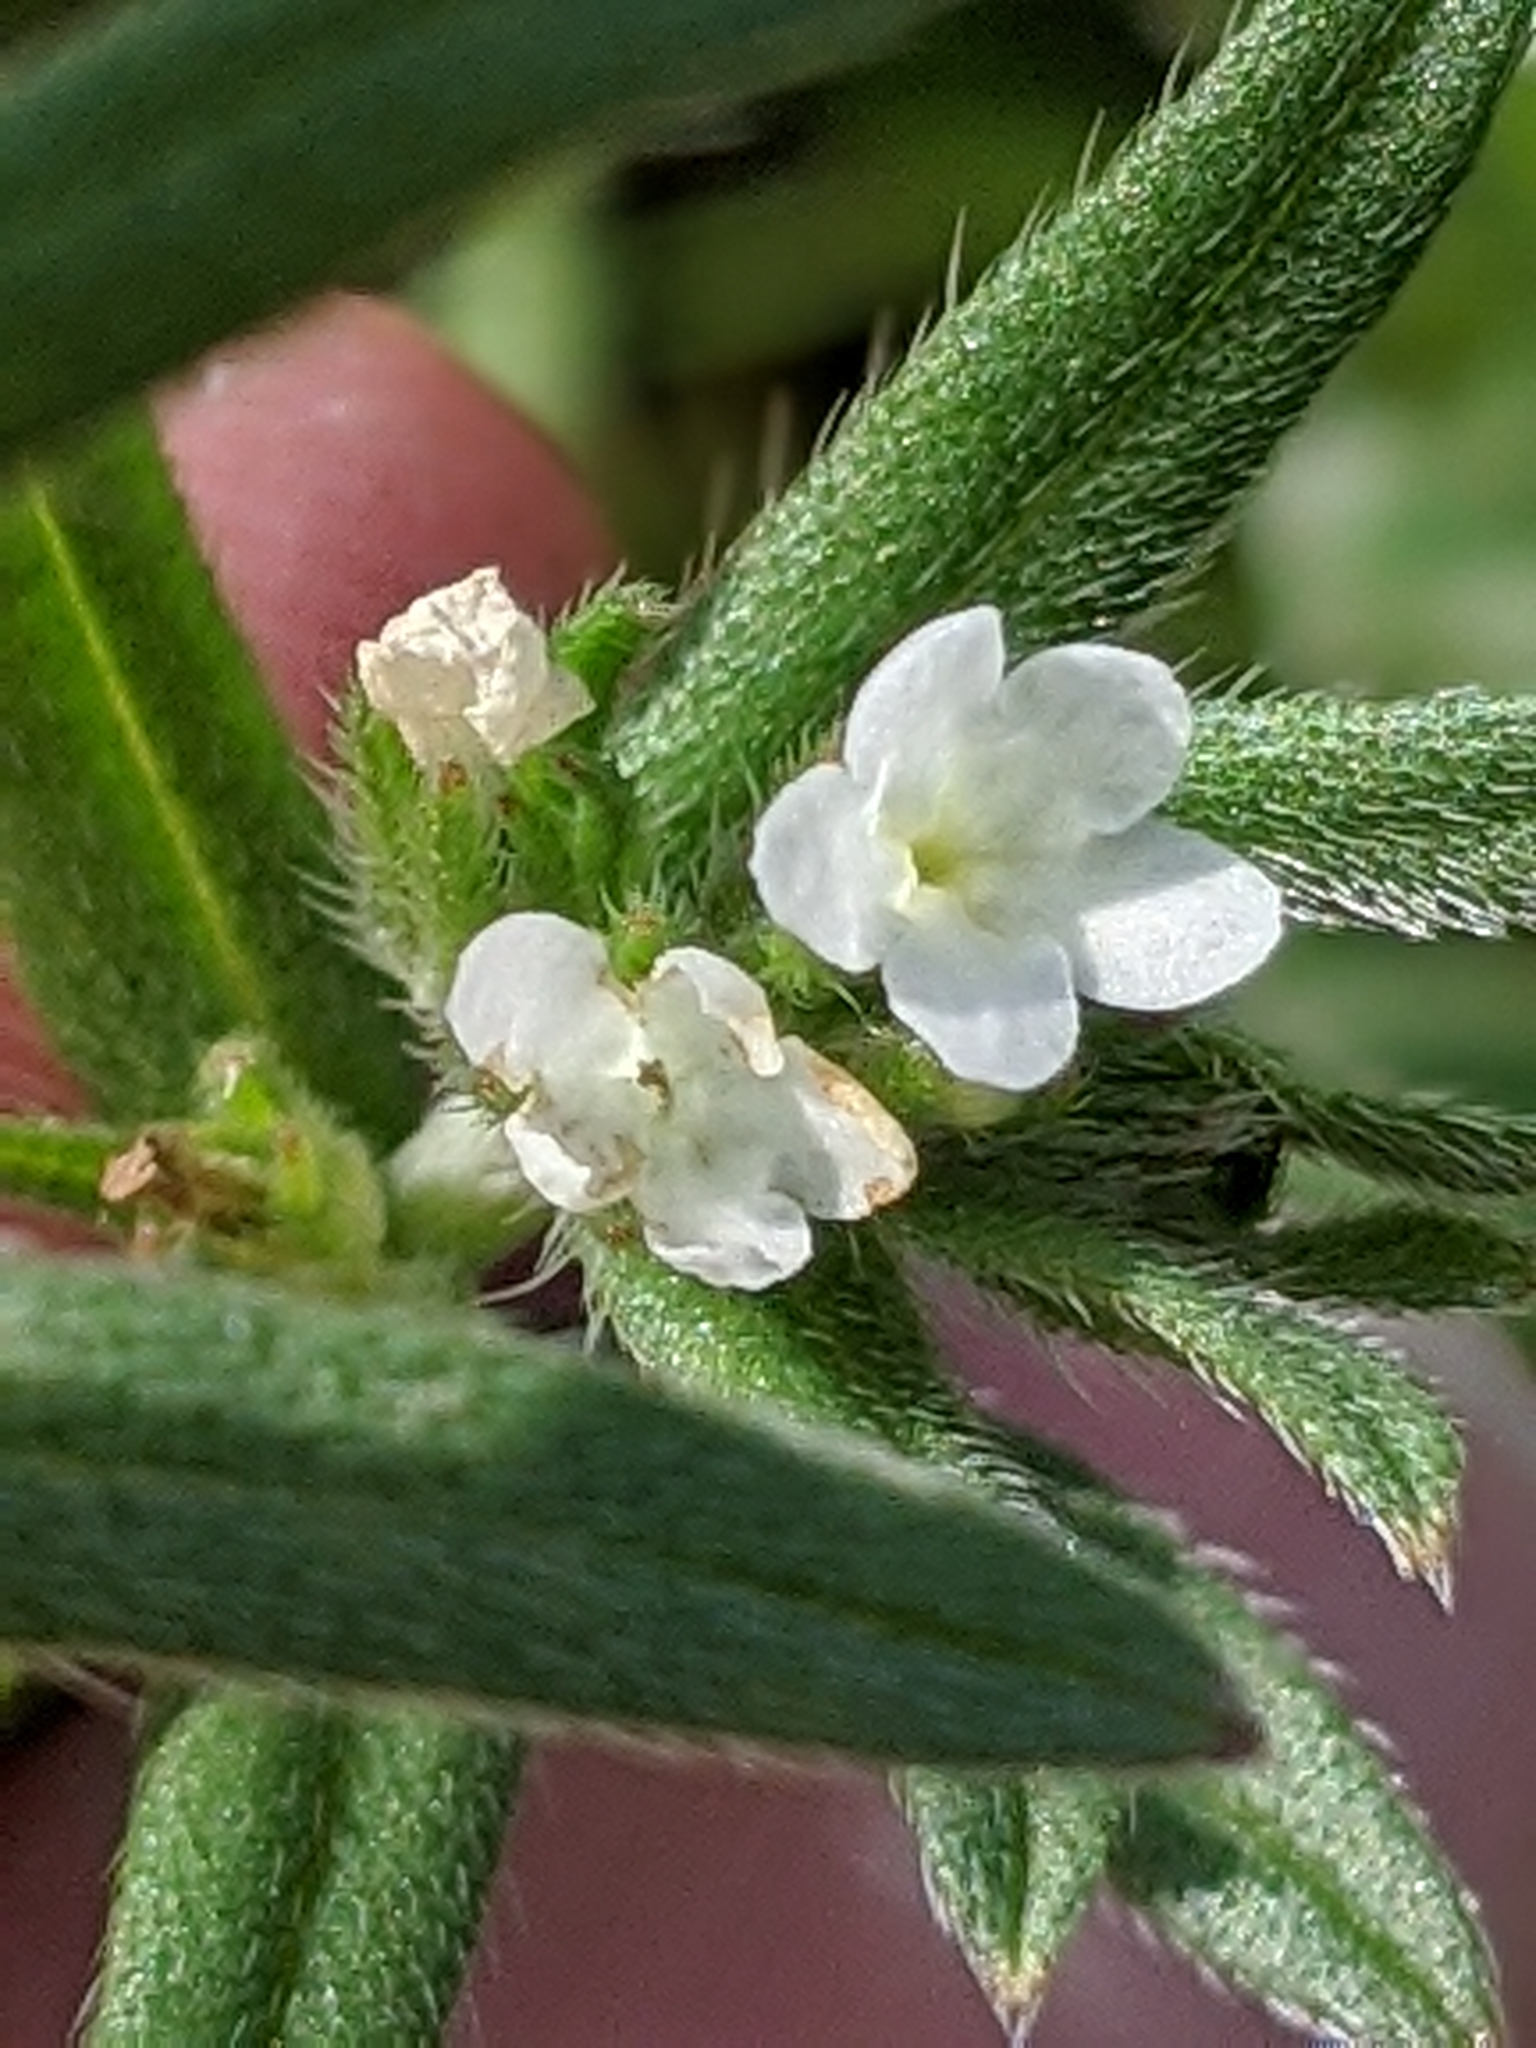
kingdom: Plantae
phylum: Tracheophyta
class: Magnoliopsida
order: Boraginales
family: Boraginaceae
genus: Buglossoides
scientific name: Buglossoides arvensis
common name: Corn gromwell
